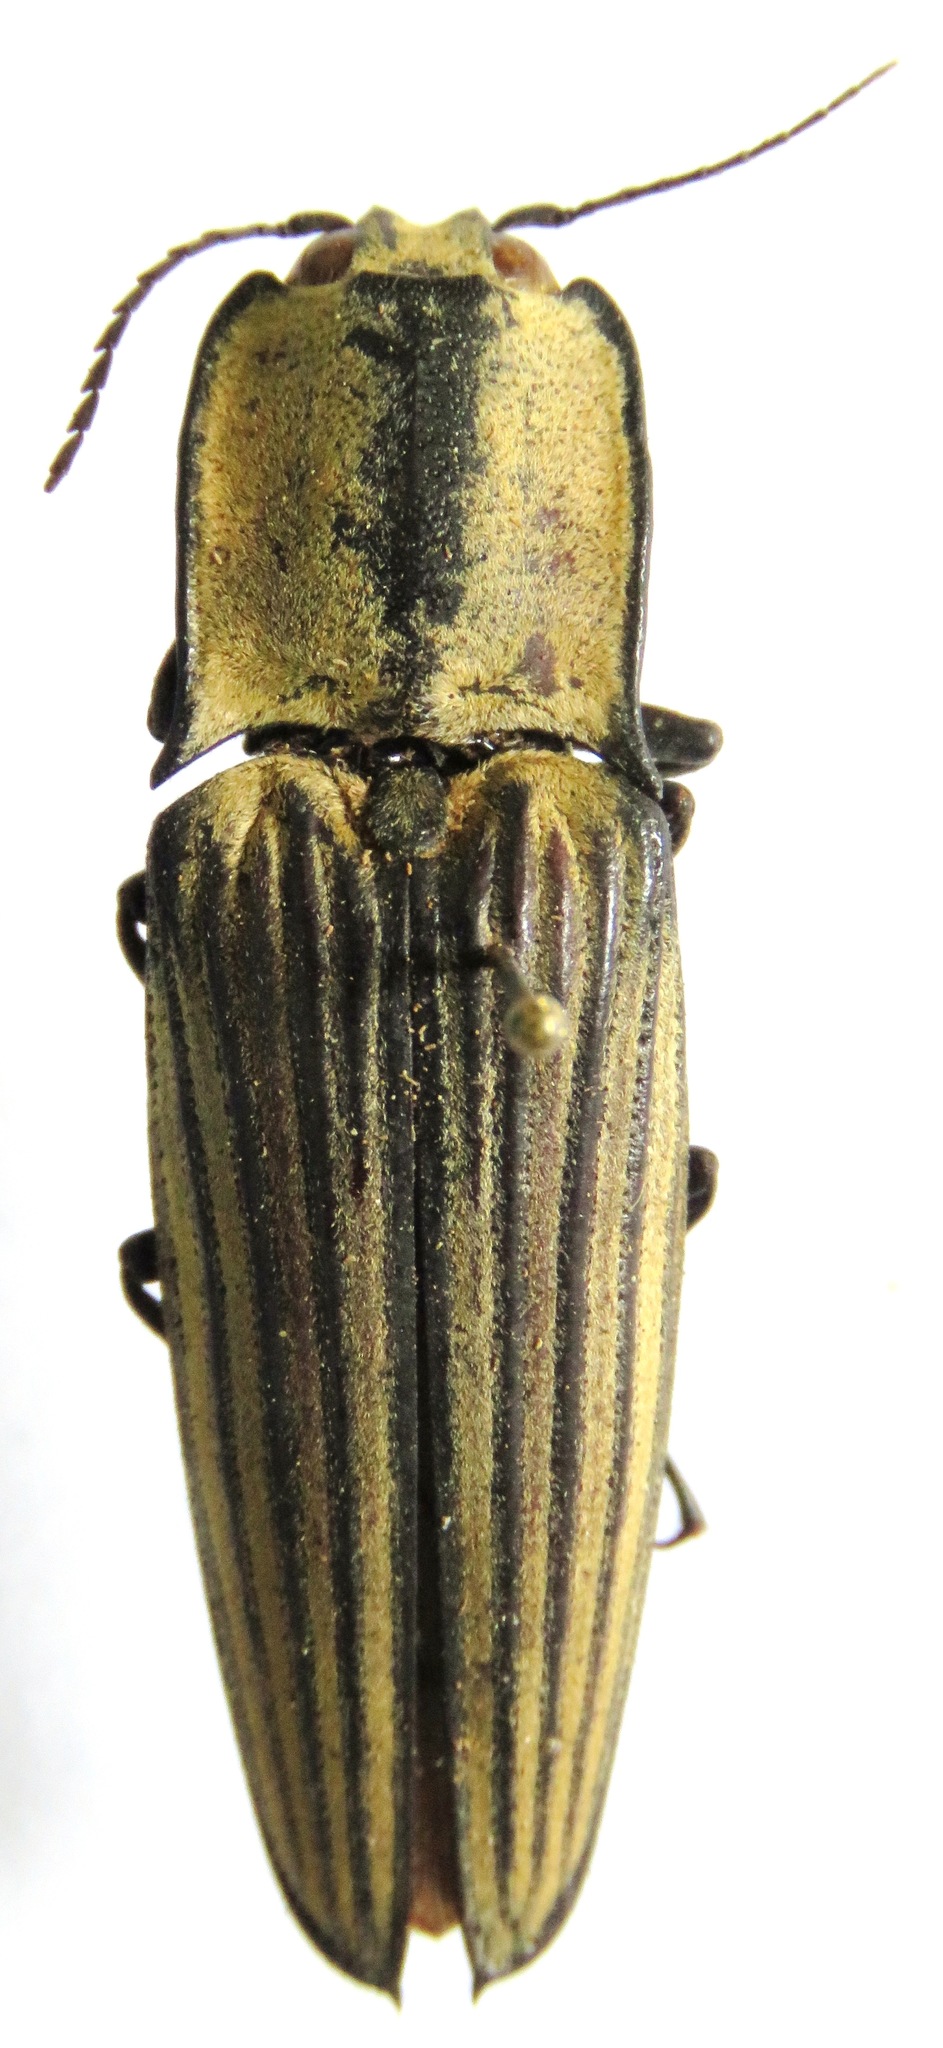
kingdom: Animalia
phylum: Arthropoda
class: Insecta
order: Coleoptera
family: Elateridae
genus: Alaus
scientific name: Alaus
